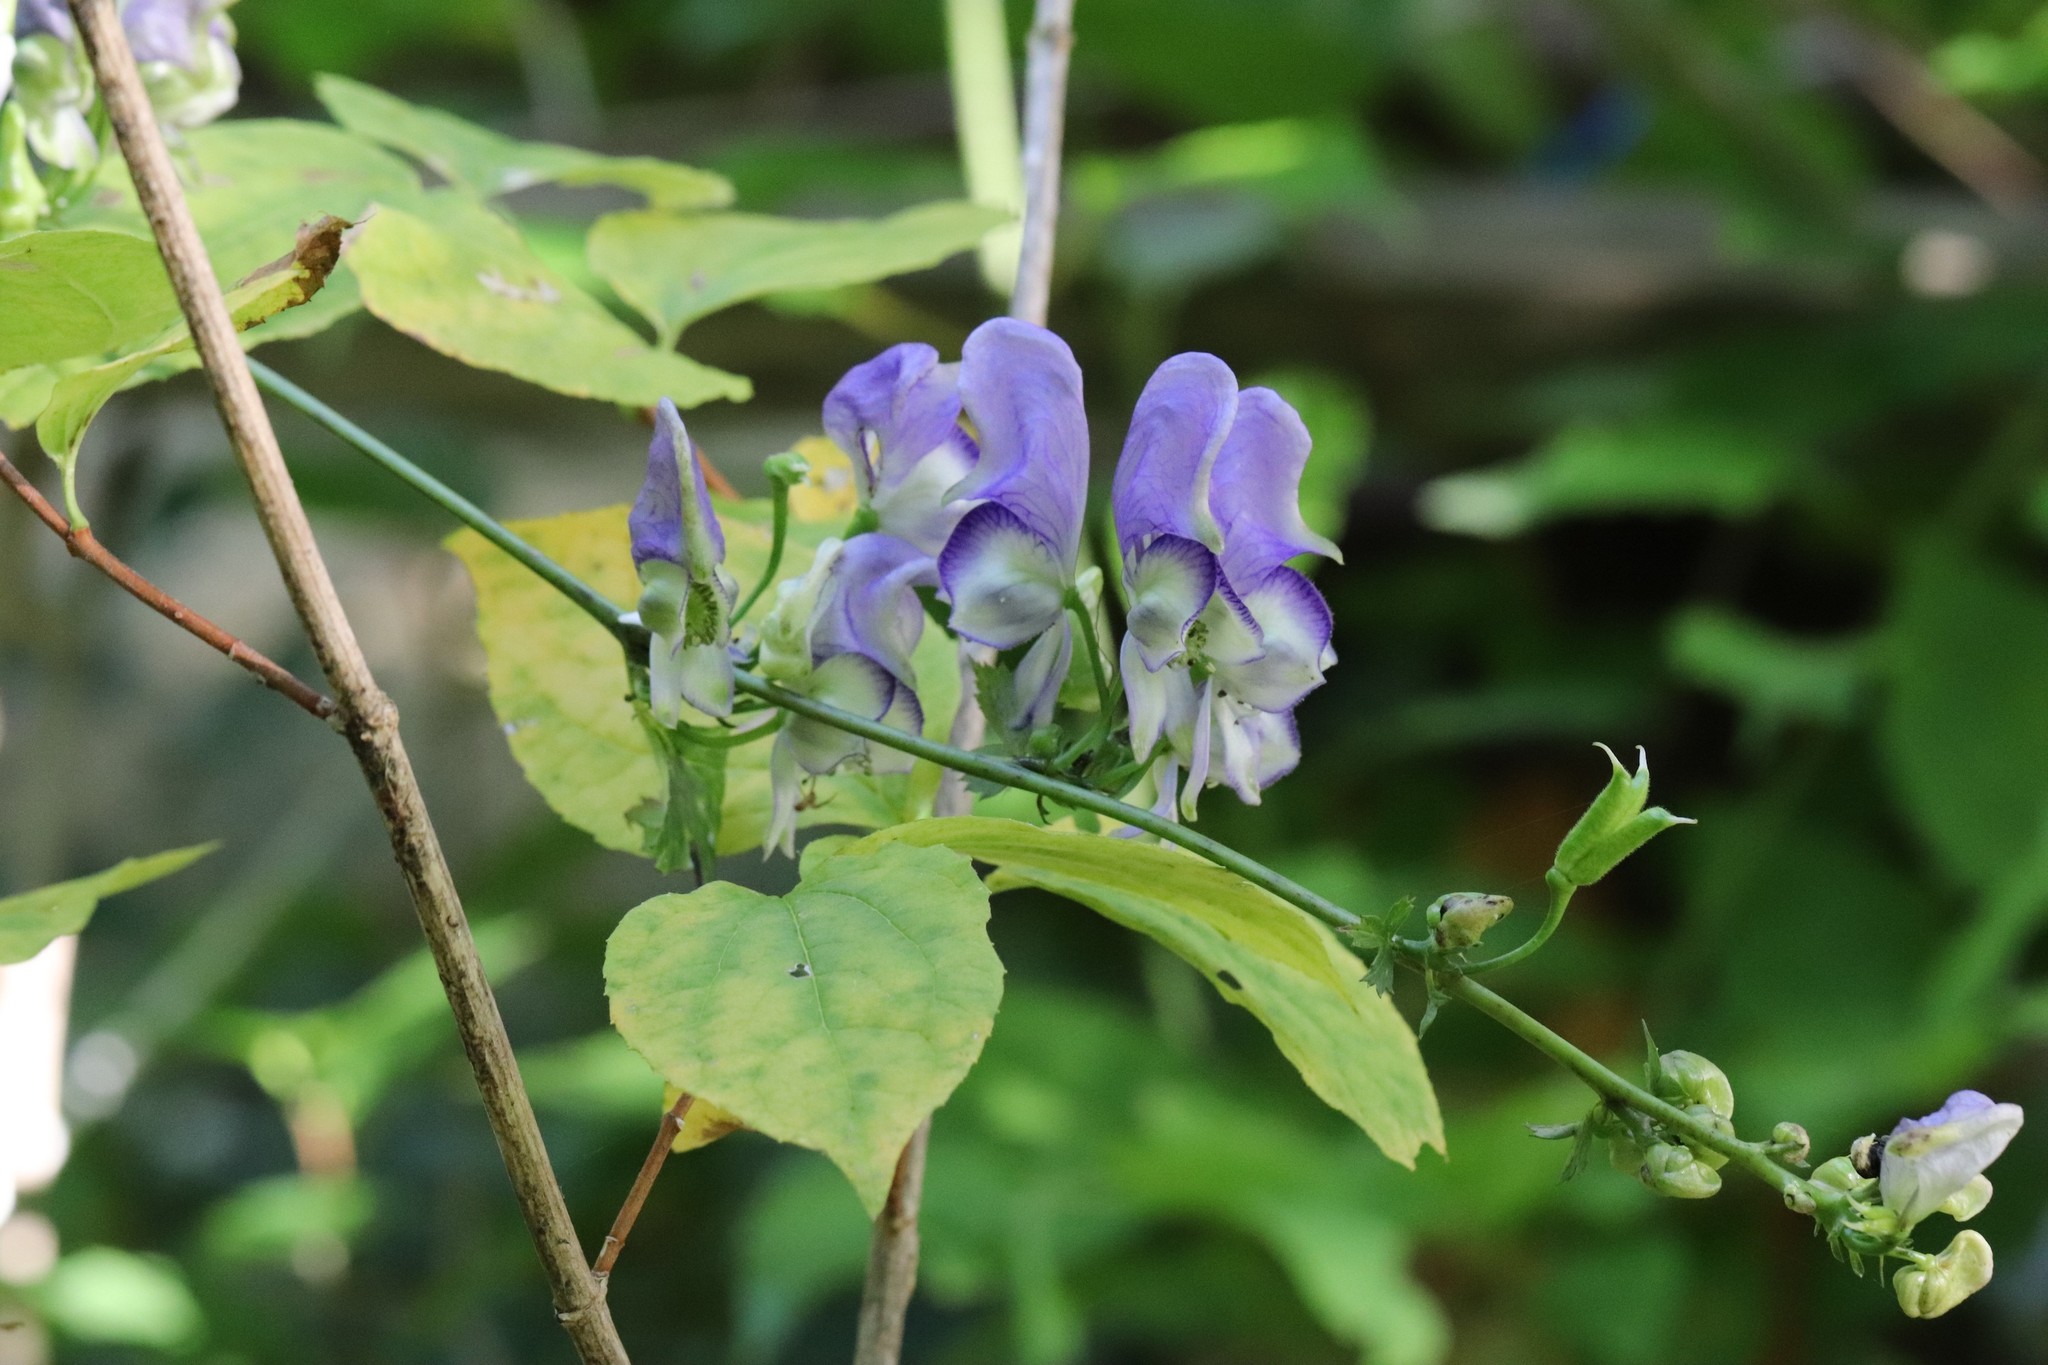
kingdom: Plantae
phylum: Tracheophyta
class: Magnoliopsida
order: Ranunculales
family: Ranunculaceae
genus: Aconitum
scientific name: Aconitum sczukinii
